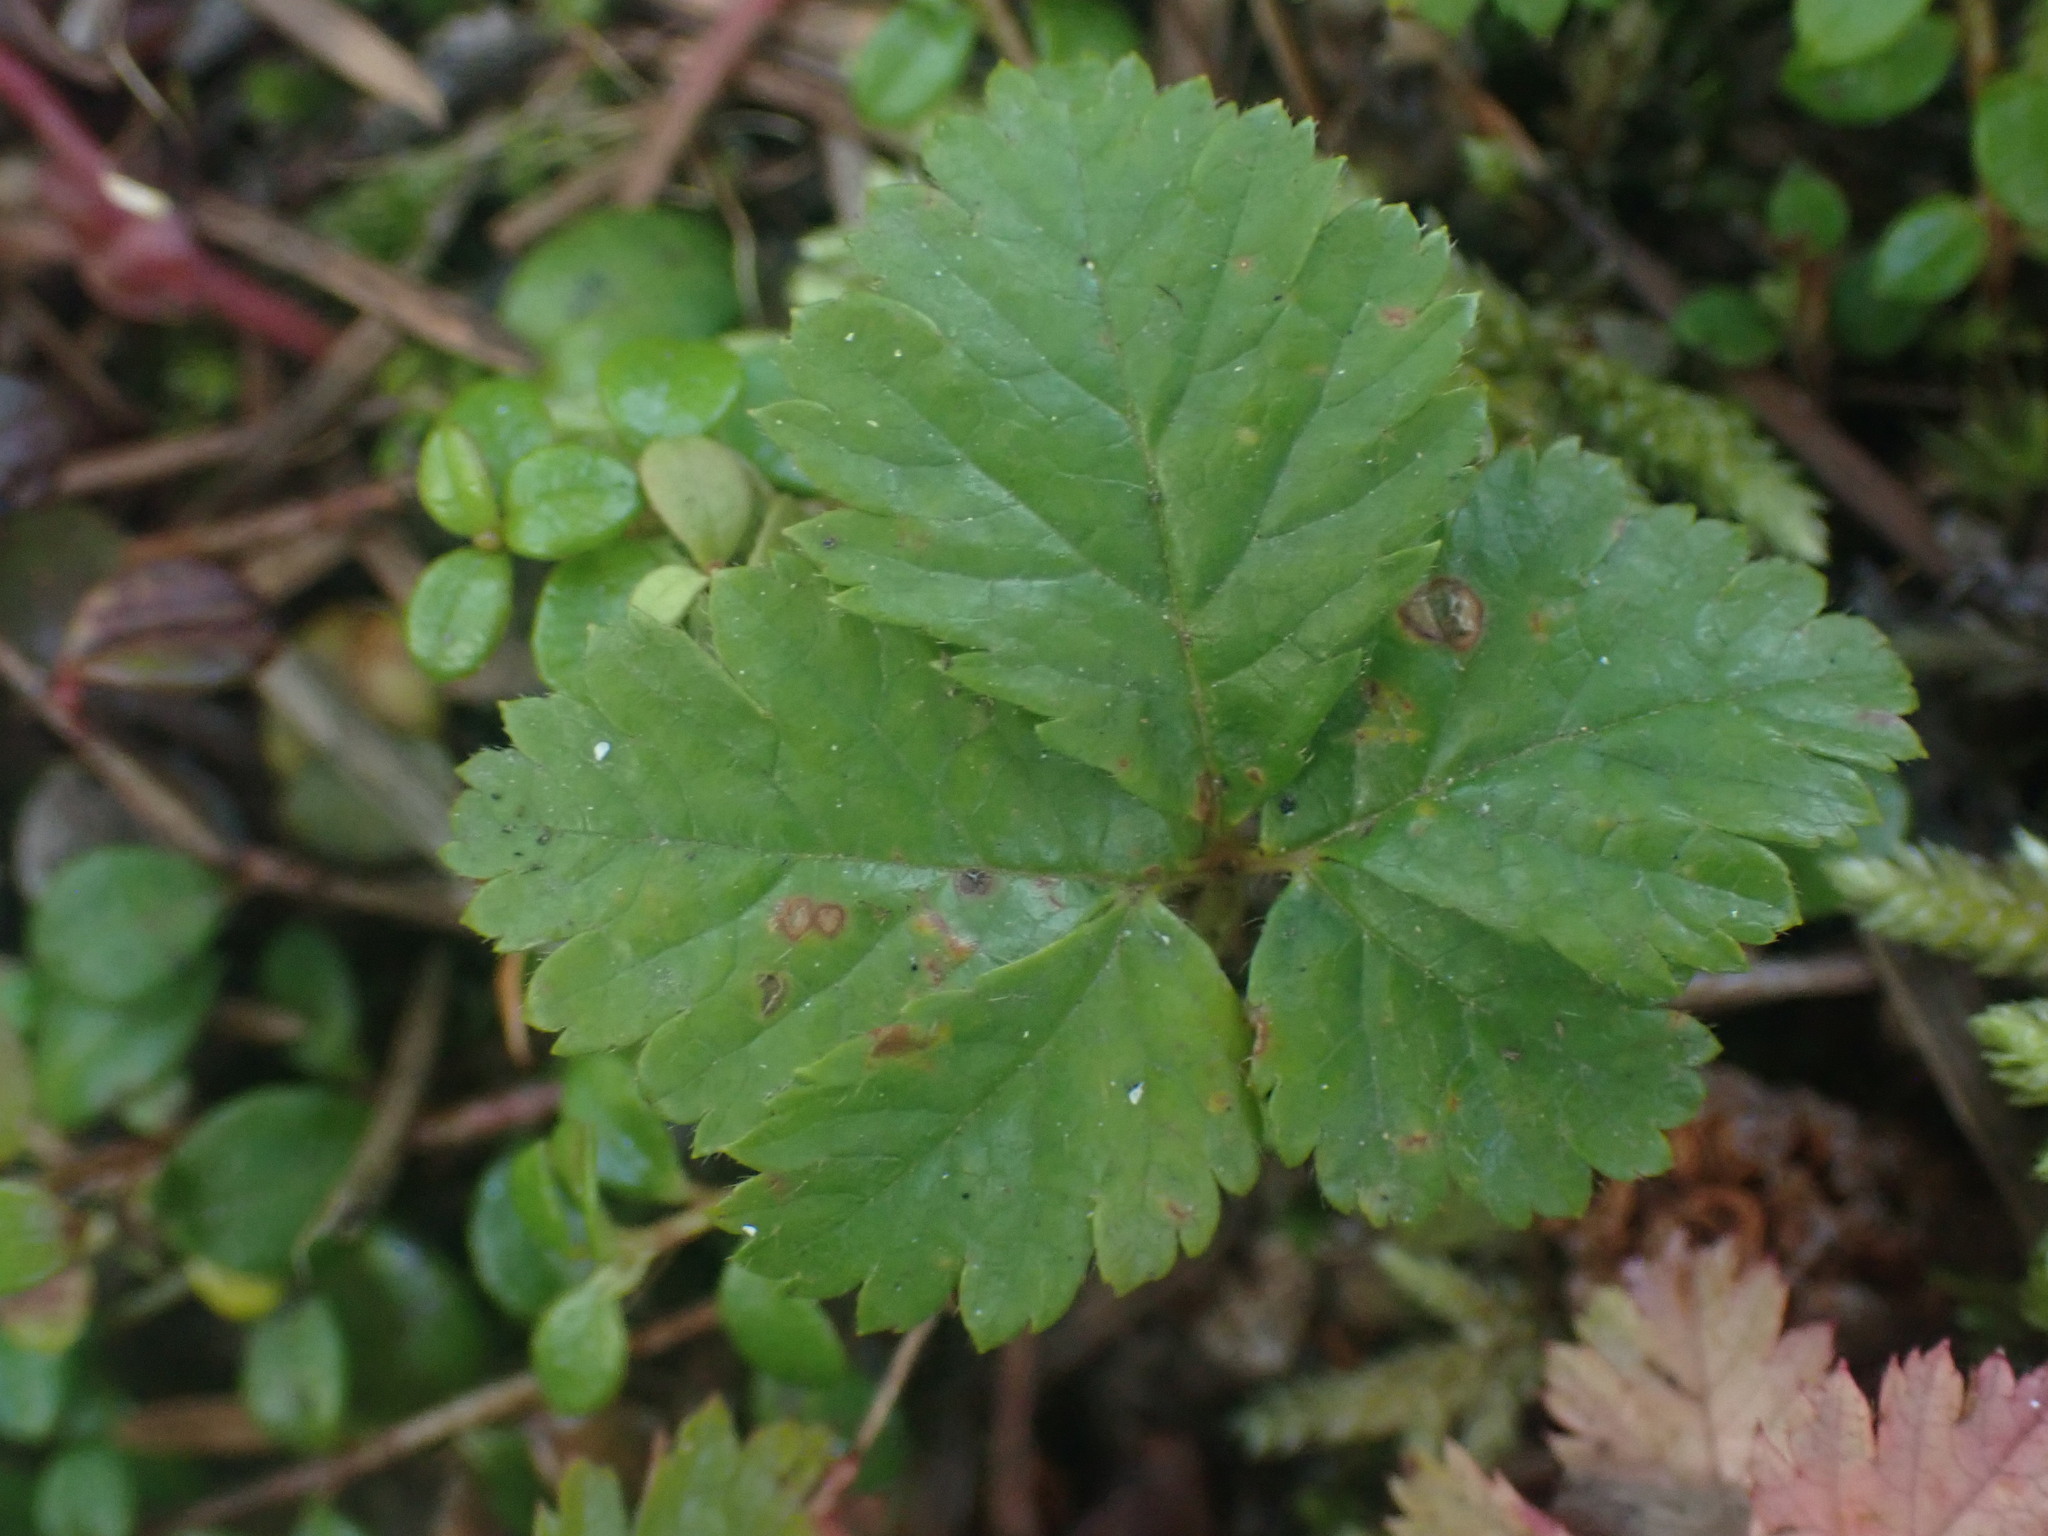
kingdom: Plantae
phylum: Tracheophyta
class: Magnoliopsida
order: Rosales
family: Rosaceae
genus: Rubus
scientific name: Rubus pedatus
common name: Creeping raspberry
